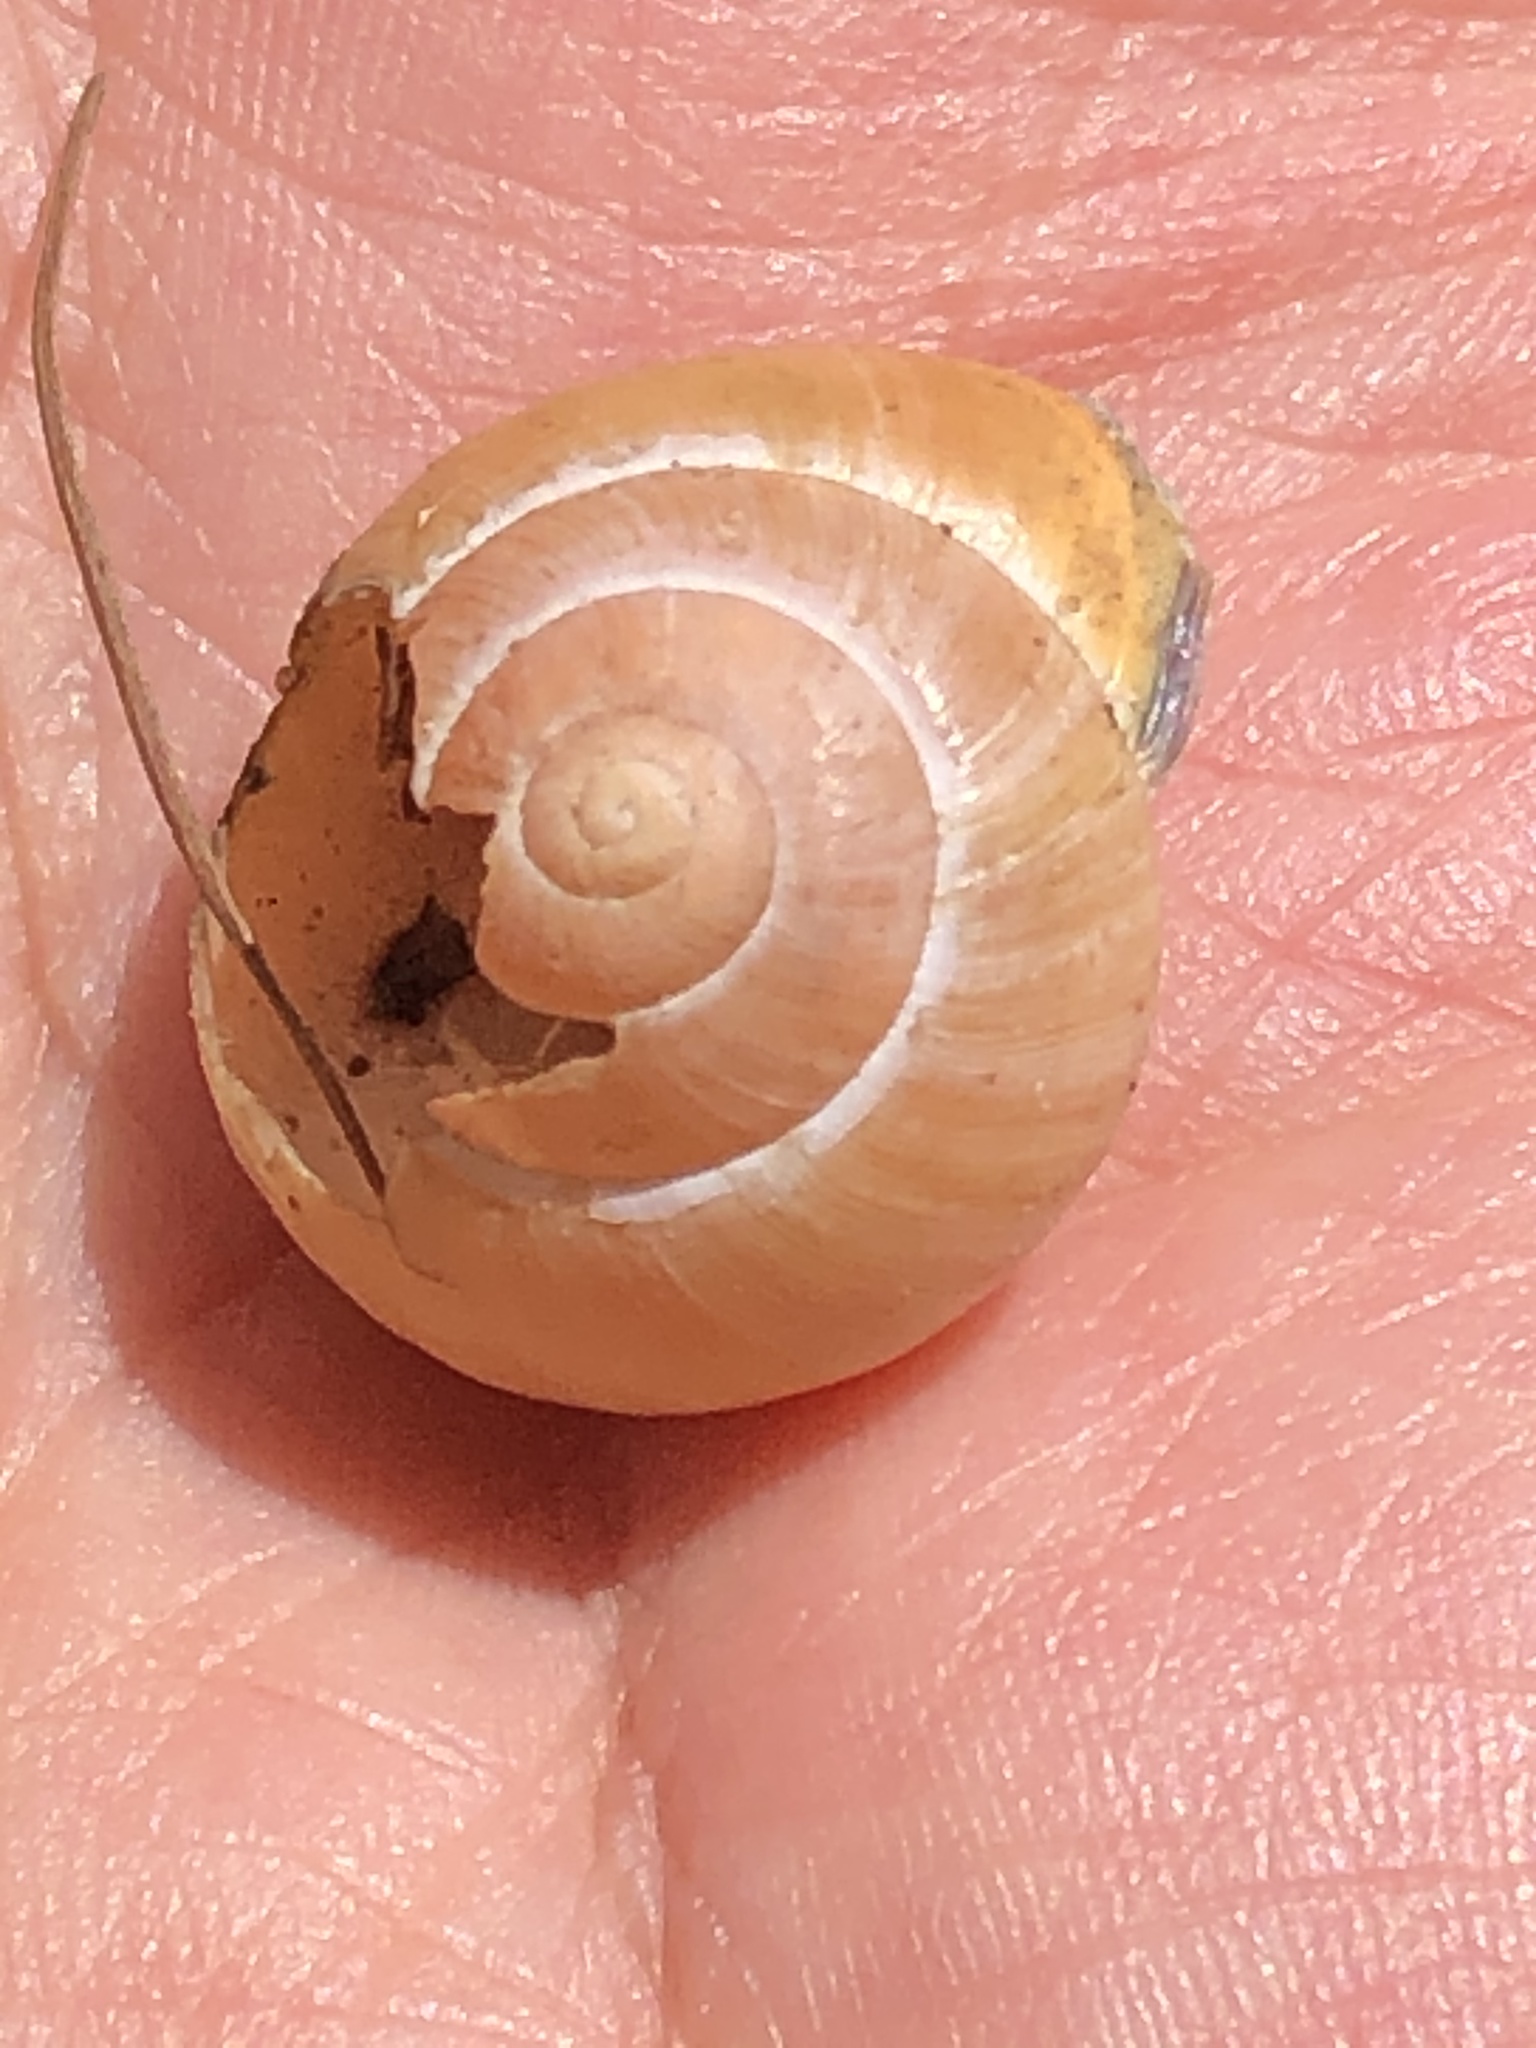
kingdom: Animalia
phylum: Mollusca
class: Gastropoda
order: Stylommatophora
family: Helicidae
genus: Cepaea
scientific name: Cepaea nemoralis
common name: Grovesnail
